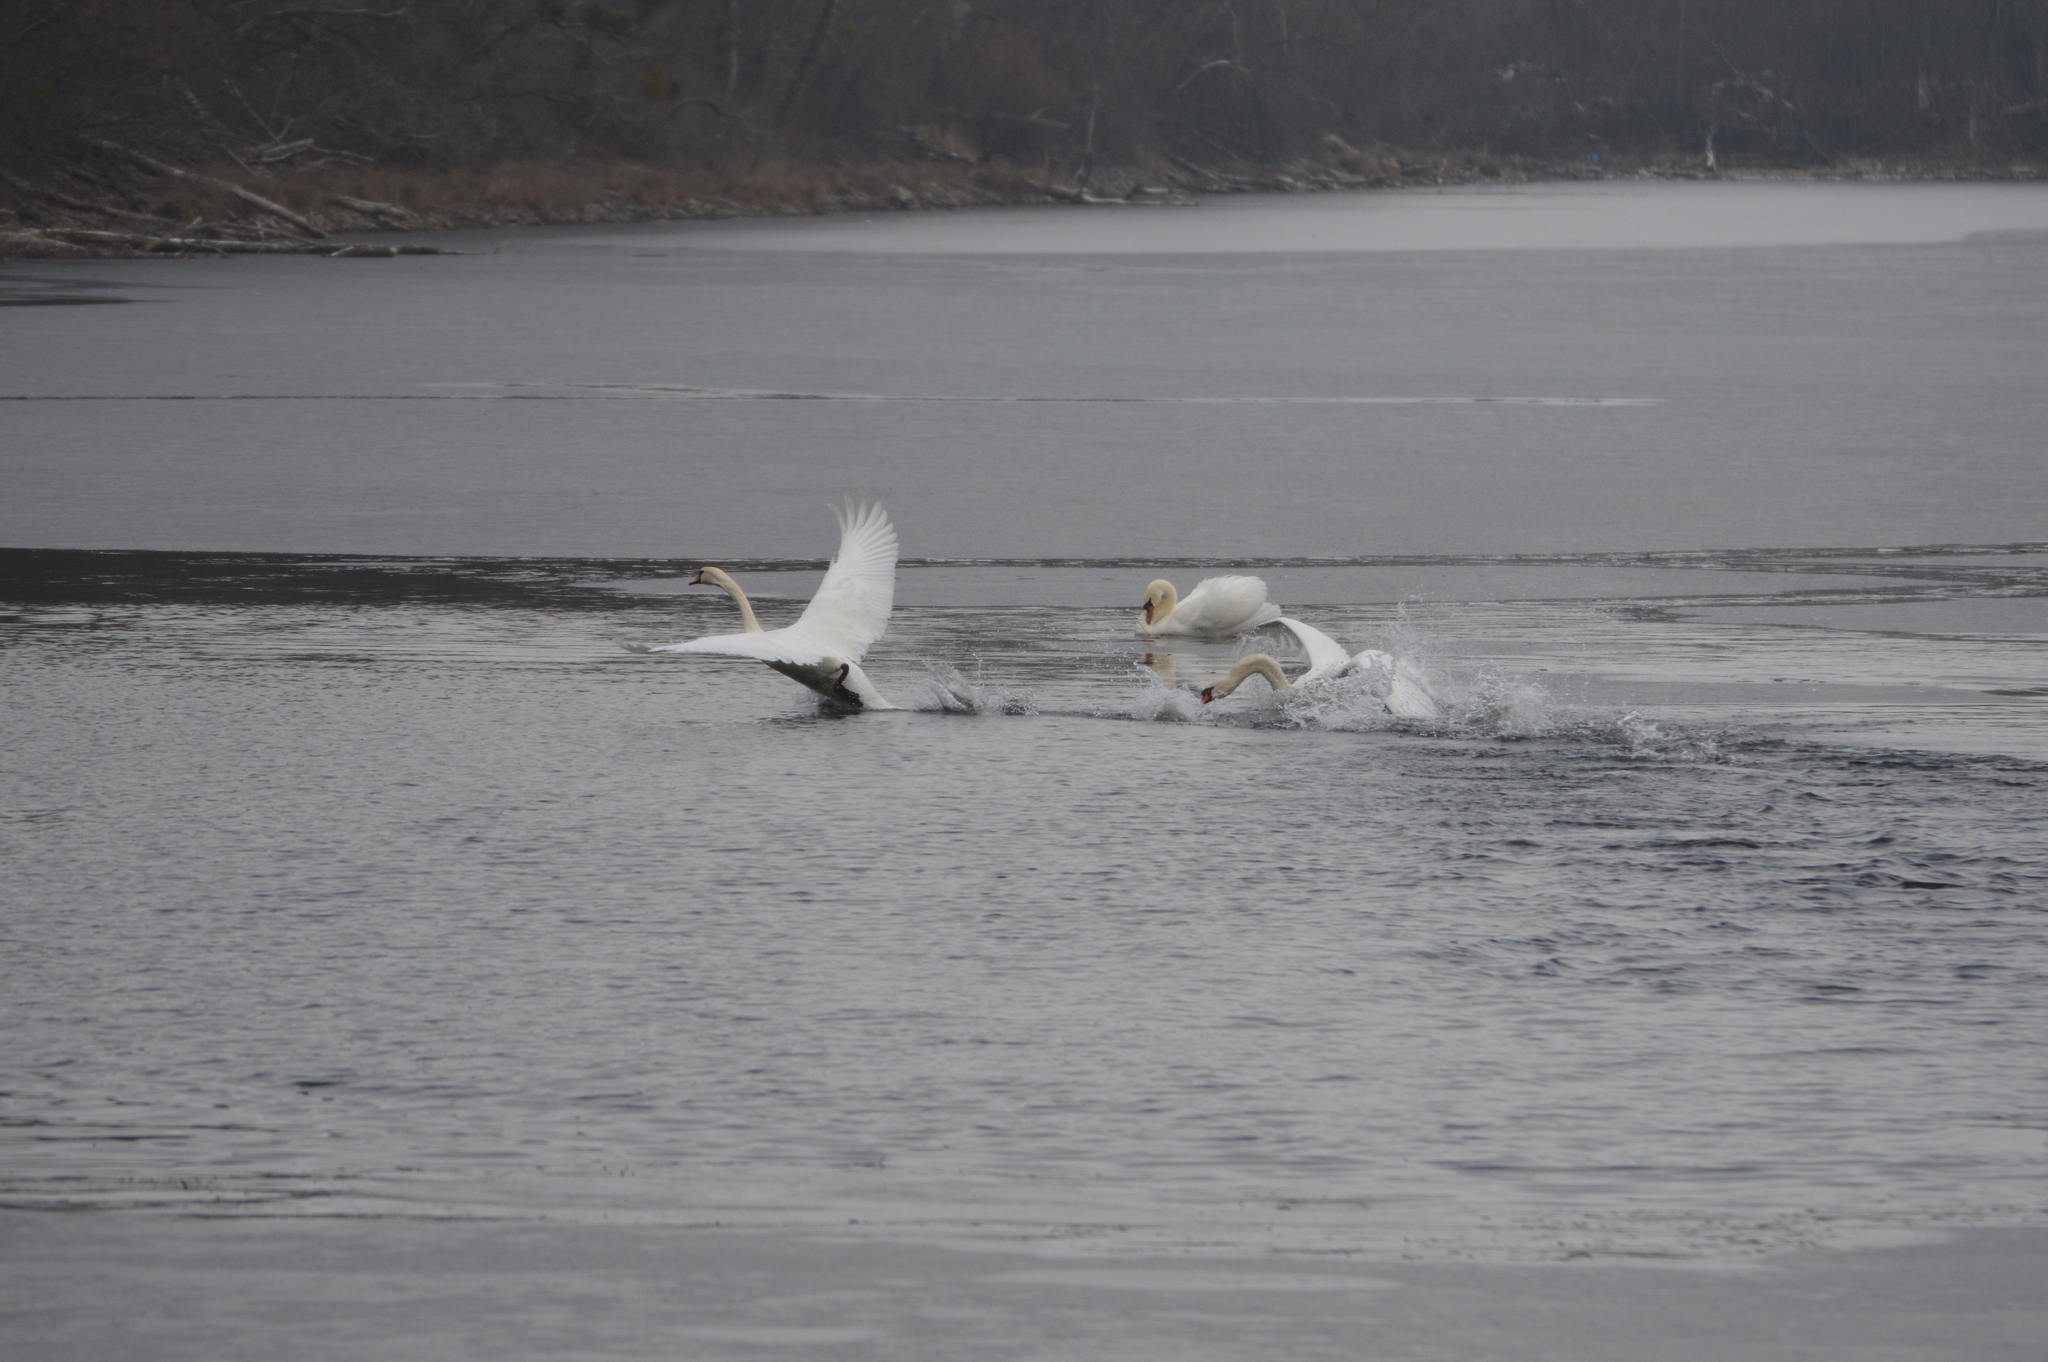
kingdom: Animalia
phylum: Chordata
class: Aves
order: Anseriformes
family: Anatidae
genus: Cygnus
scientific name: Cygnus olor
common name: Mute swan
